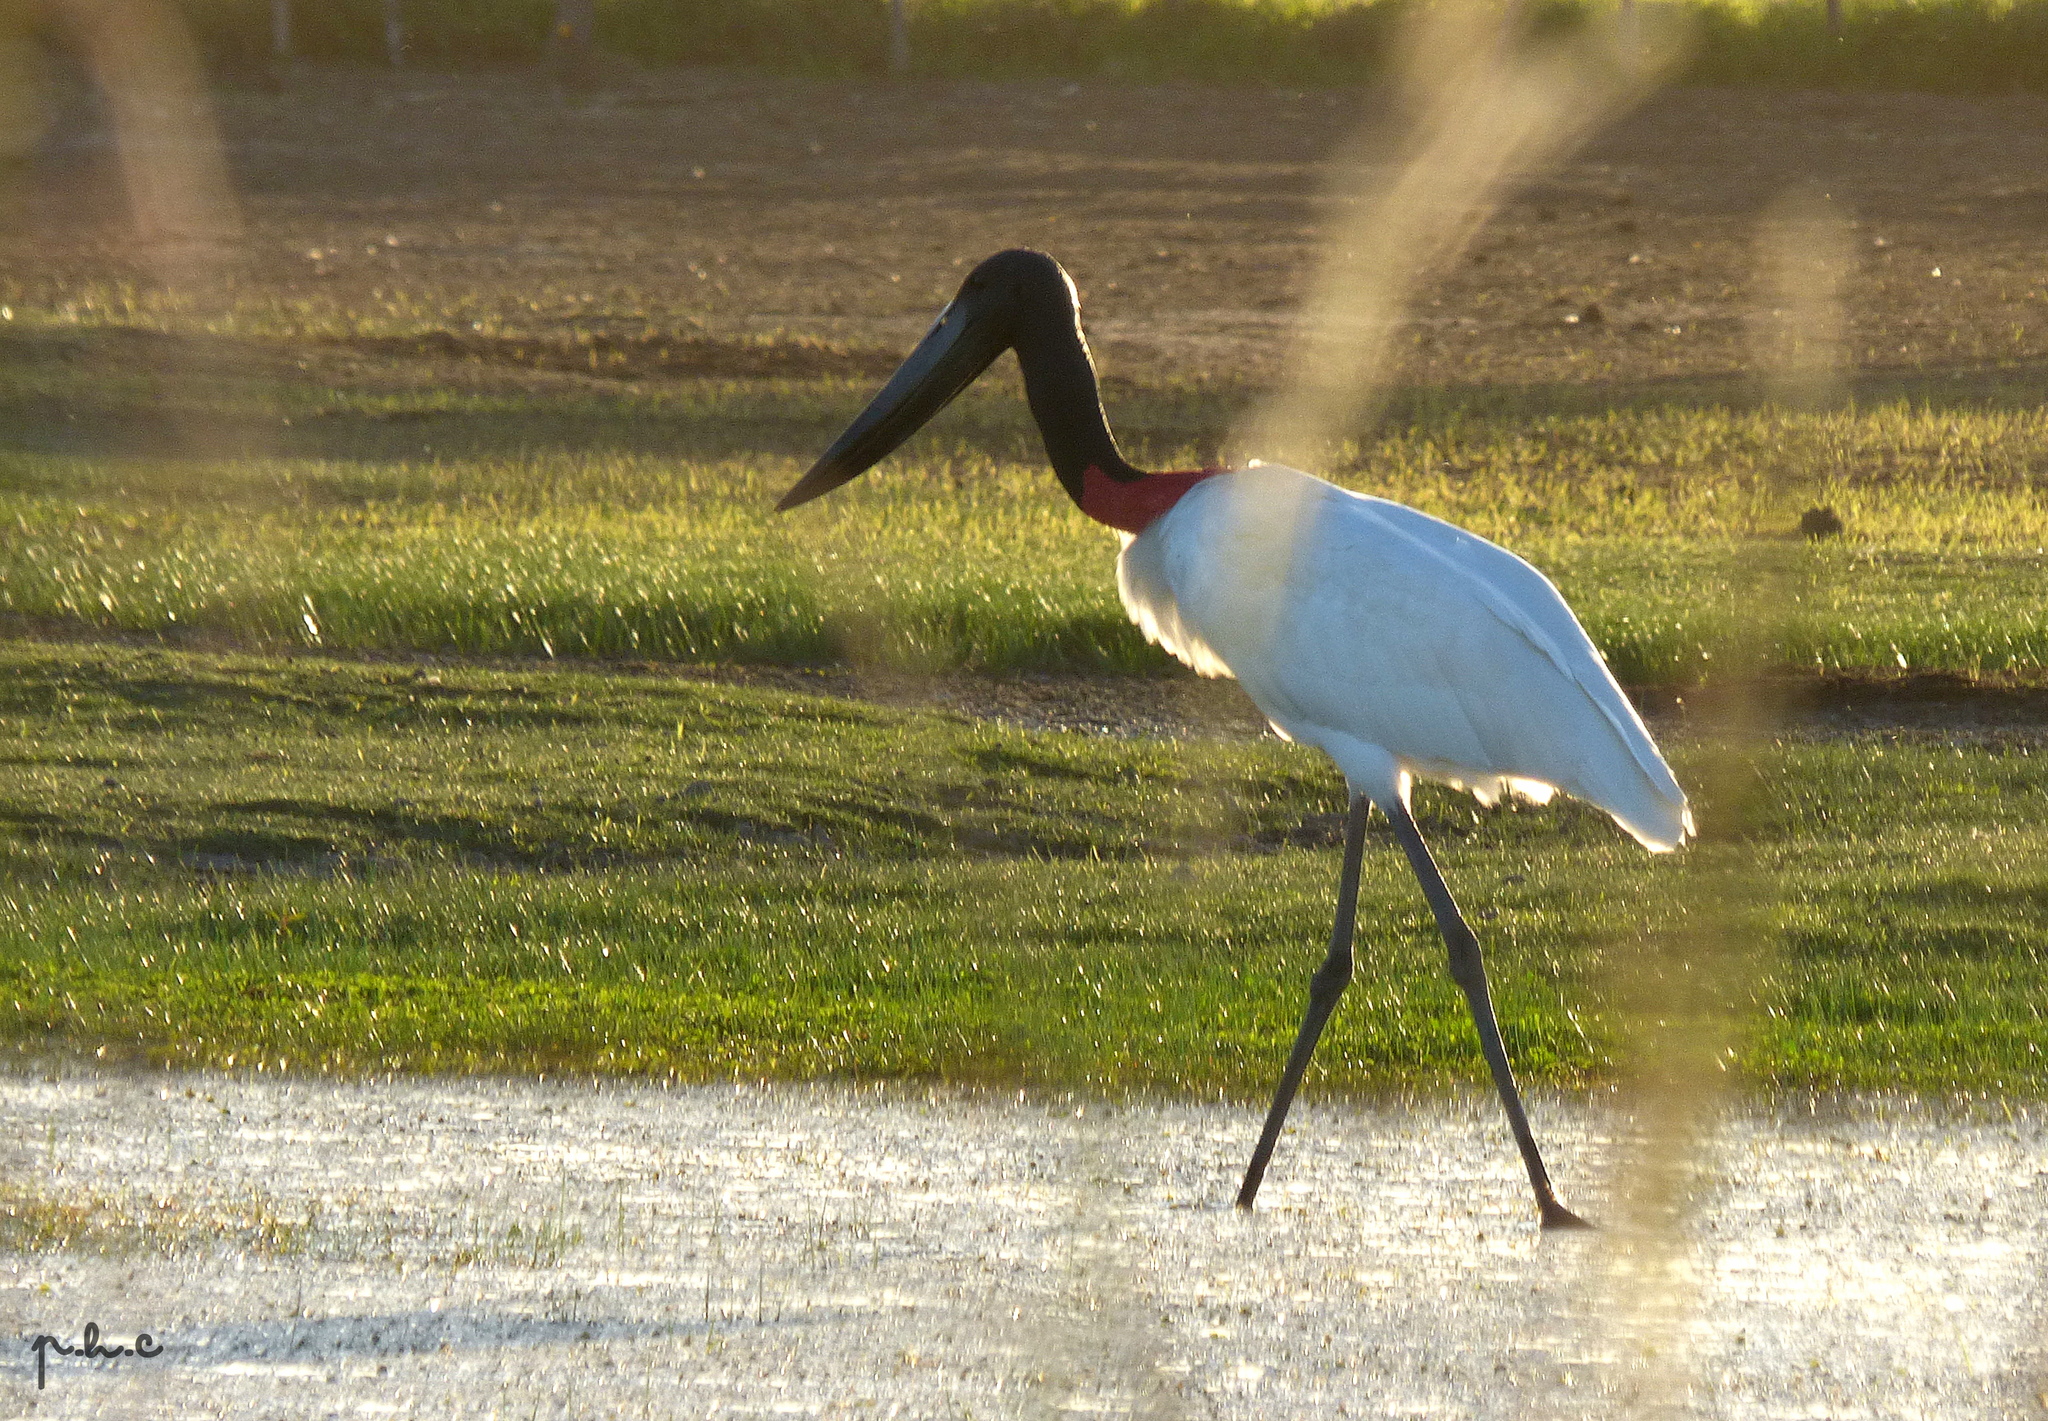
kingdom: Animalia
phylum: Chordata
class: Aves
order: Ciconiiformes
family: Ciconiidae
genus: Jabiru
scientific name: Jabiru mycteria
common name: Jabiru
